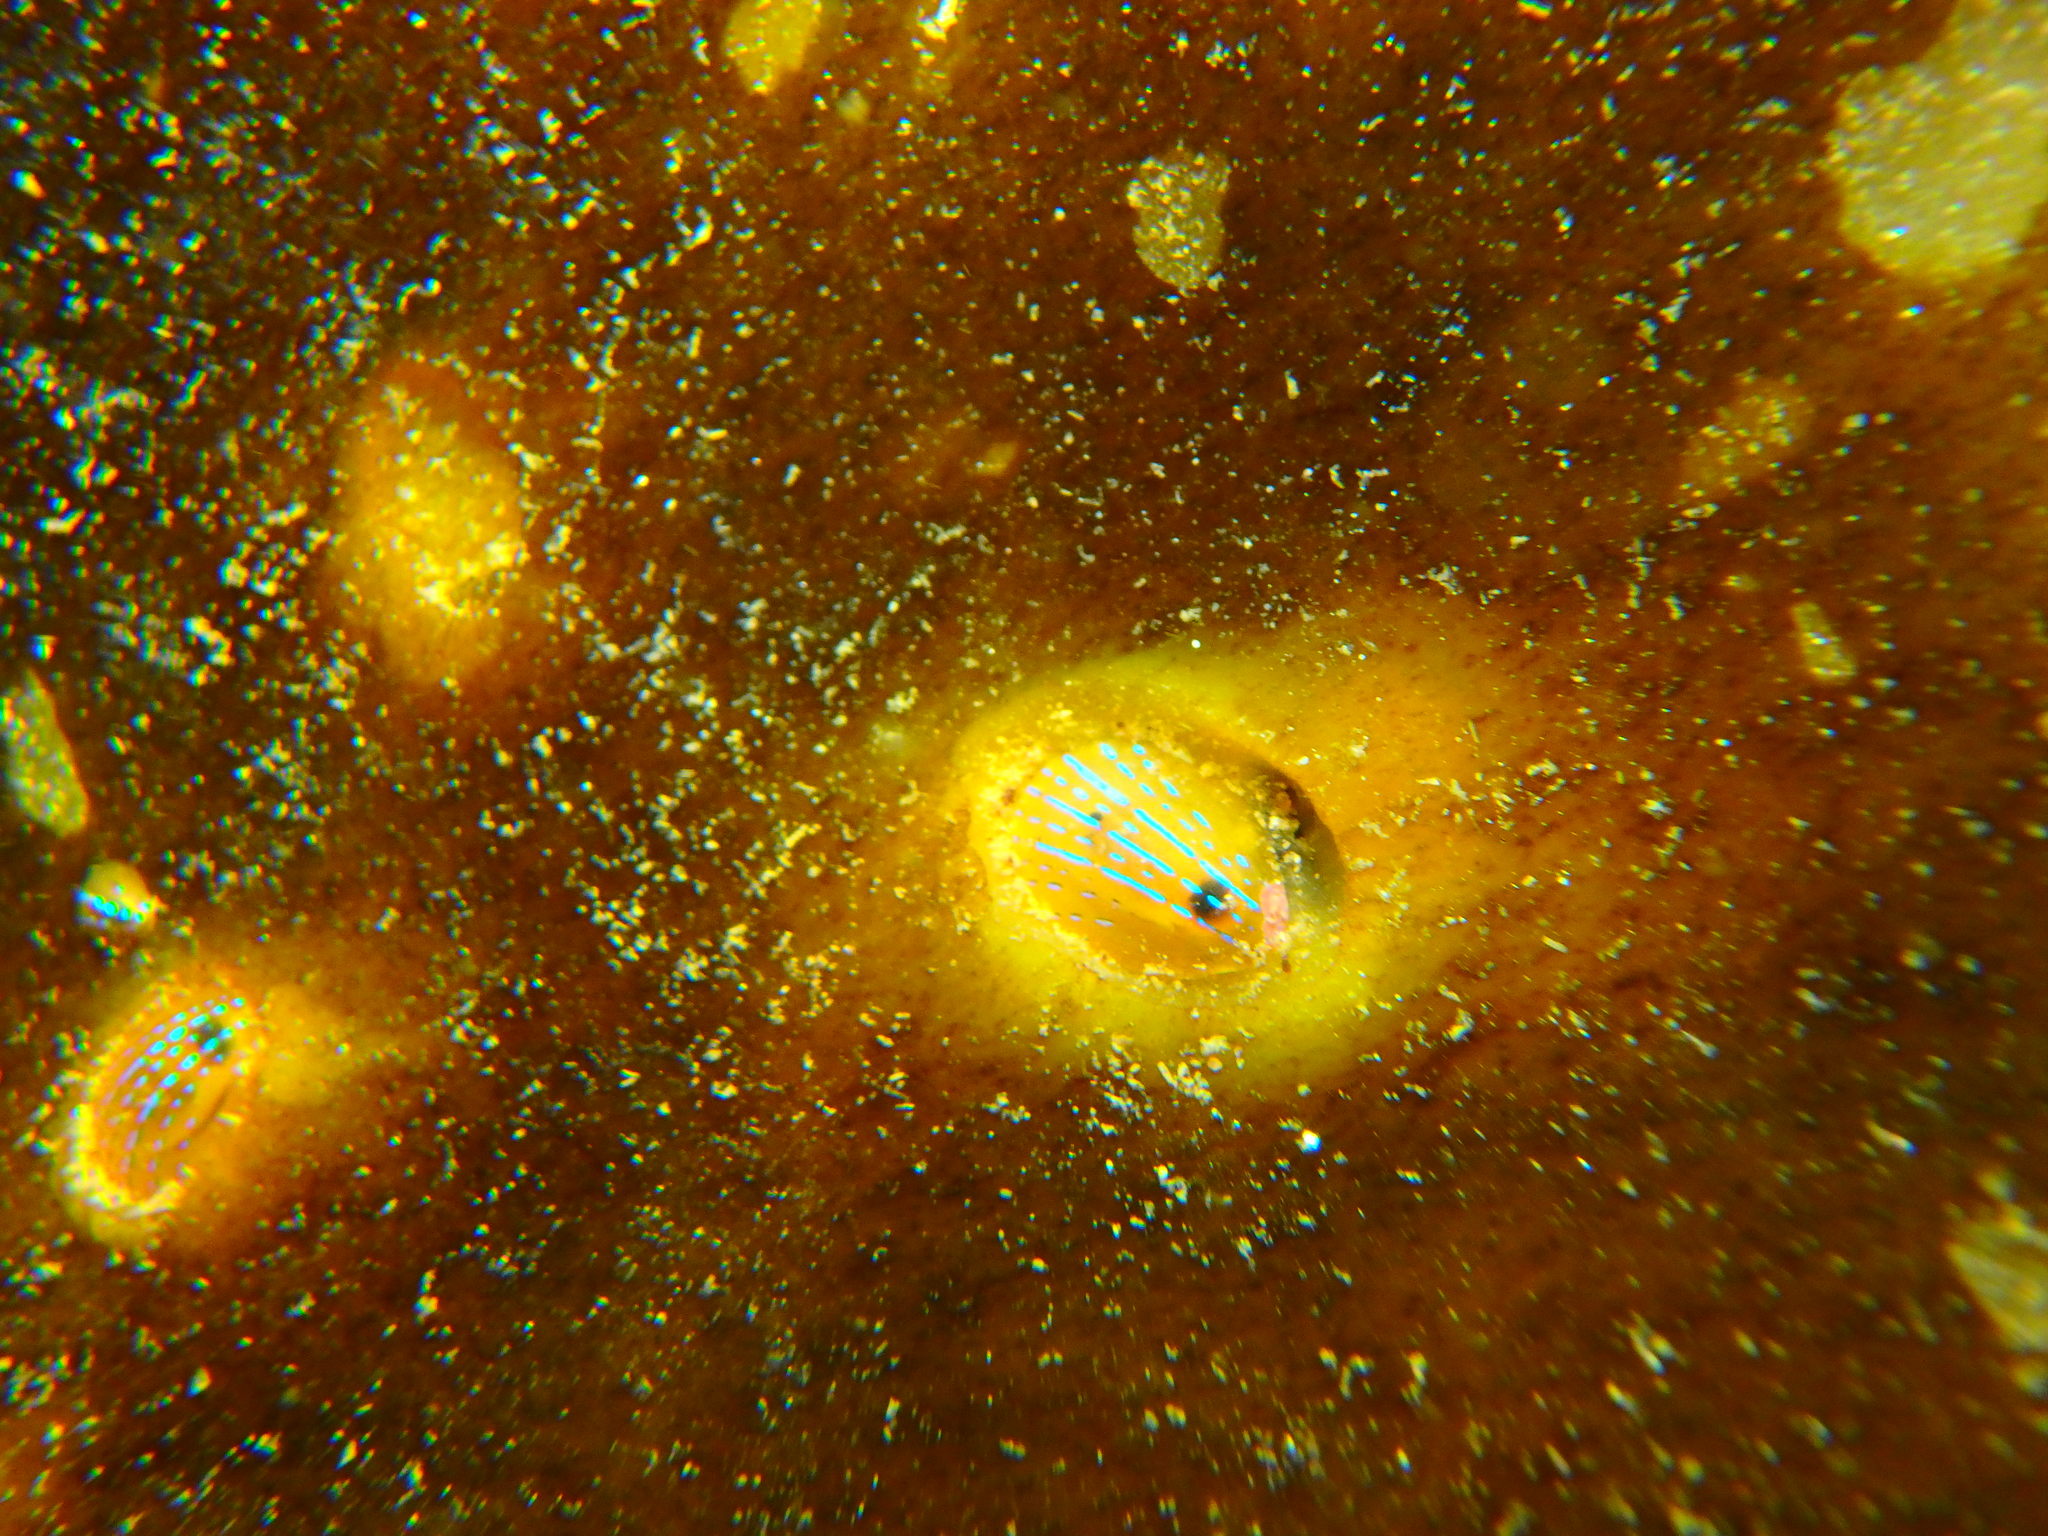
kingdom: Animalia
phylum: Mollusca
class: Gastropoda
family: Patellidae
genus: Patella
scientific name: Patella pellucida
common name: Blue-rayed limpet
